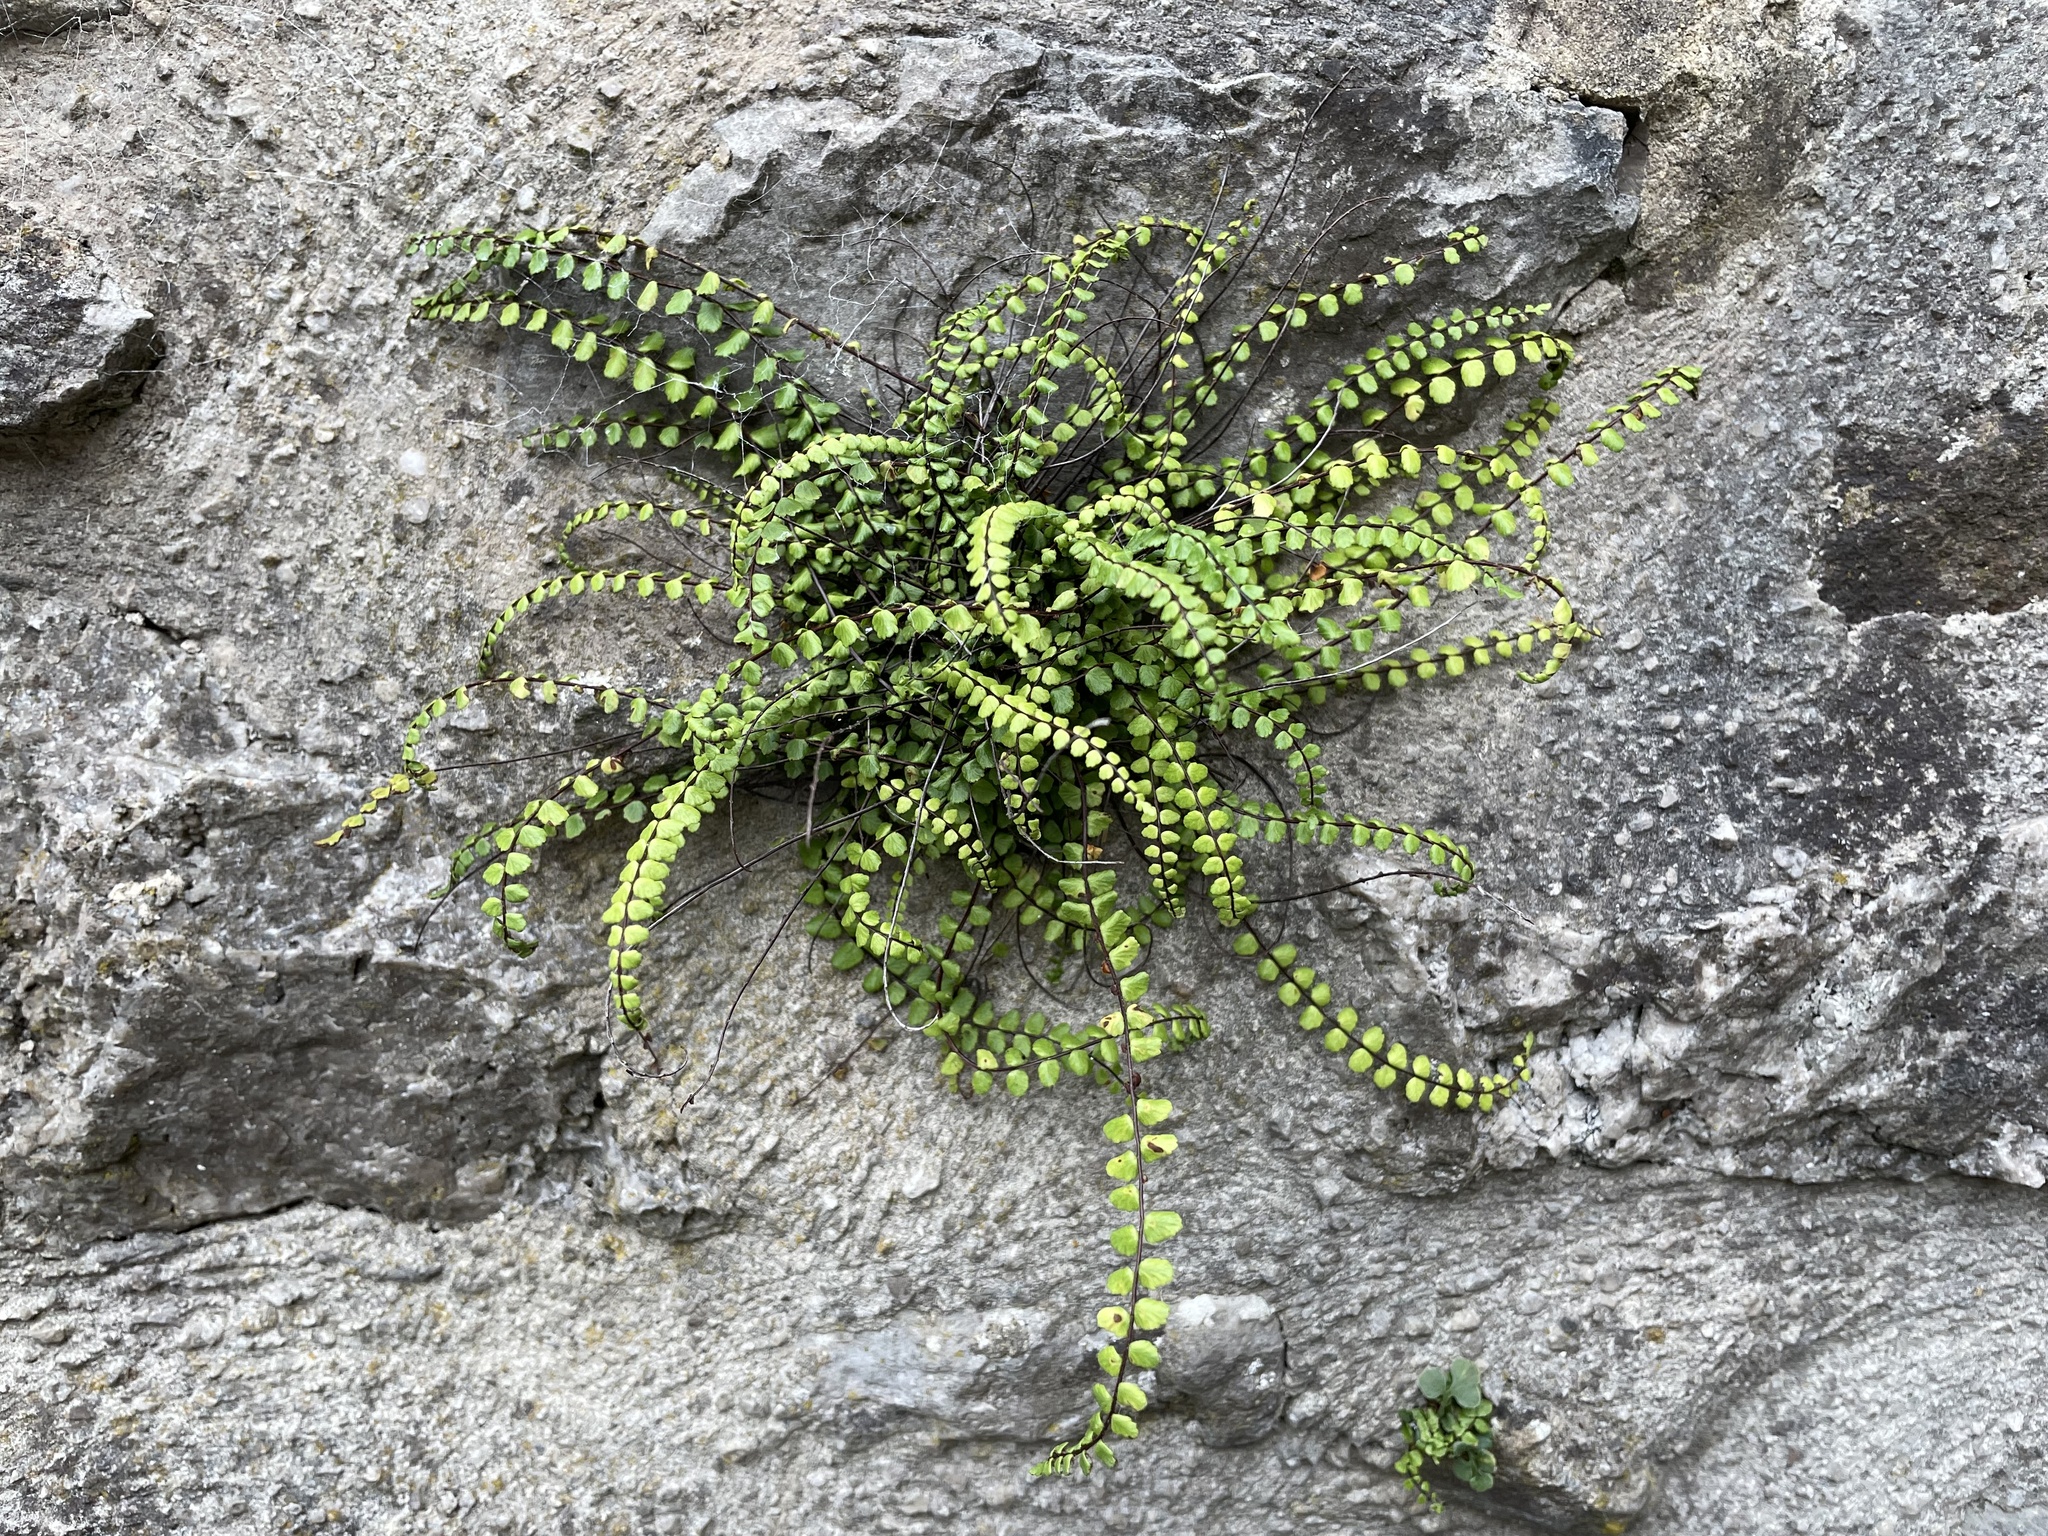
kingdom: Plantae
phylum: Tracheophyta
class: Polypodiopsida
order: Polypodiales
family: Aspleniaceae
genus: Asplenium
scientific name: Asplenium trichomanes
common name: Maidenhair spleenwort
